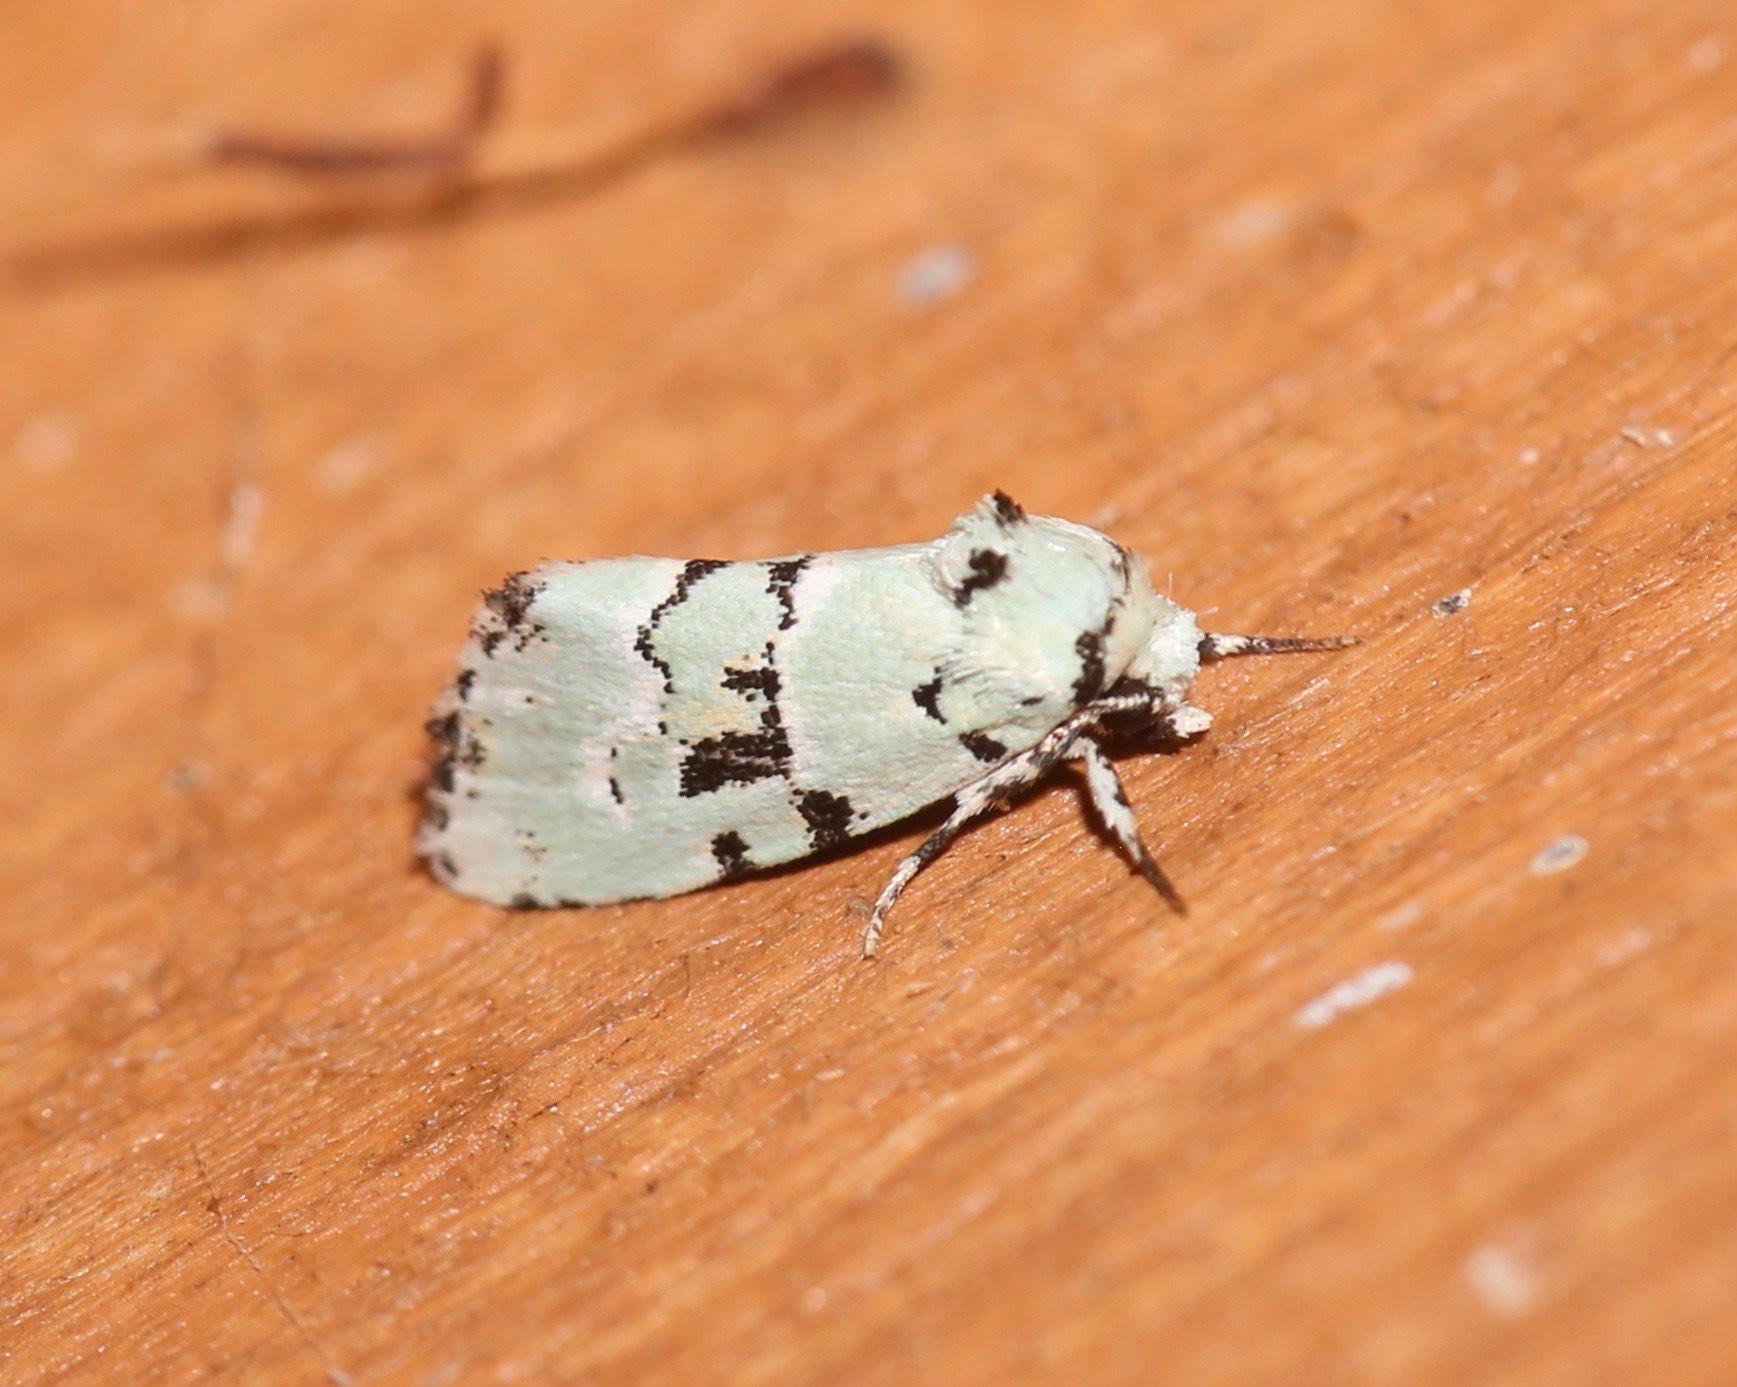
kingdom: Animalia
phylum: Arthropoda
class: Insecta
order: Lepidoptera
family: Noctuidae
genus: Elaphria
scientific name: Elaphria cyanympha
